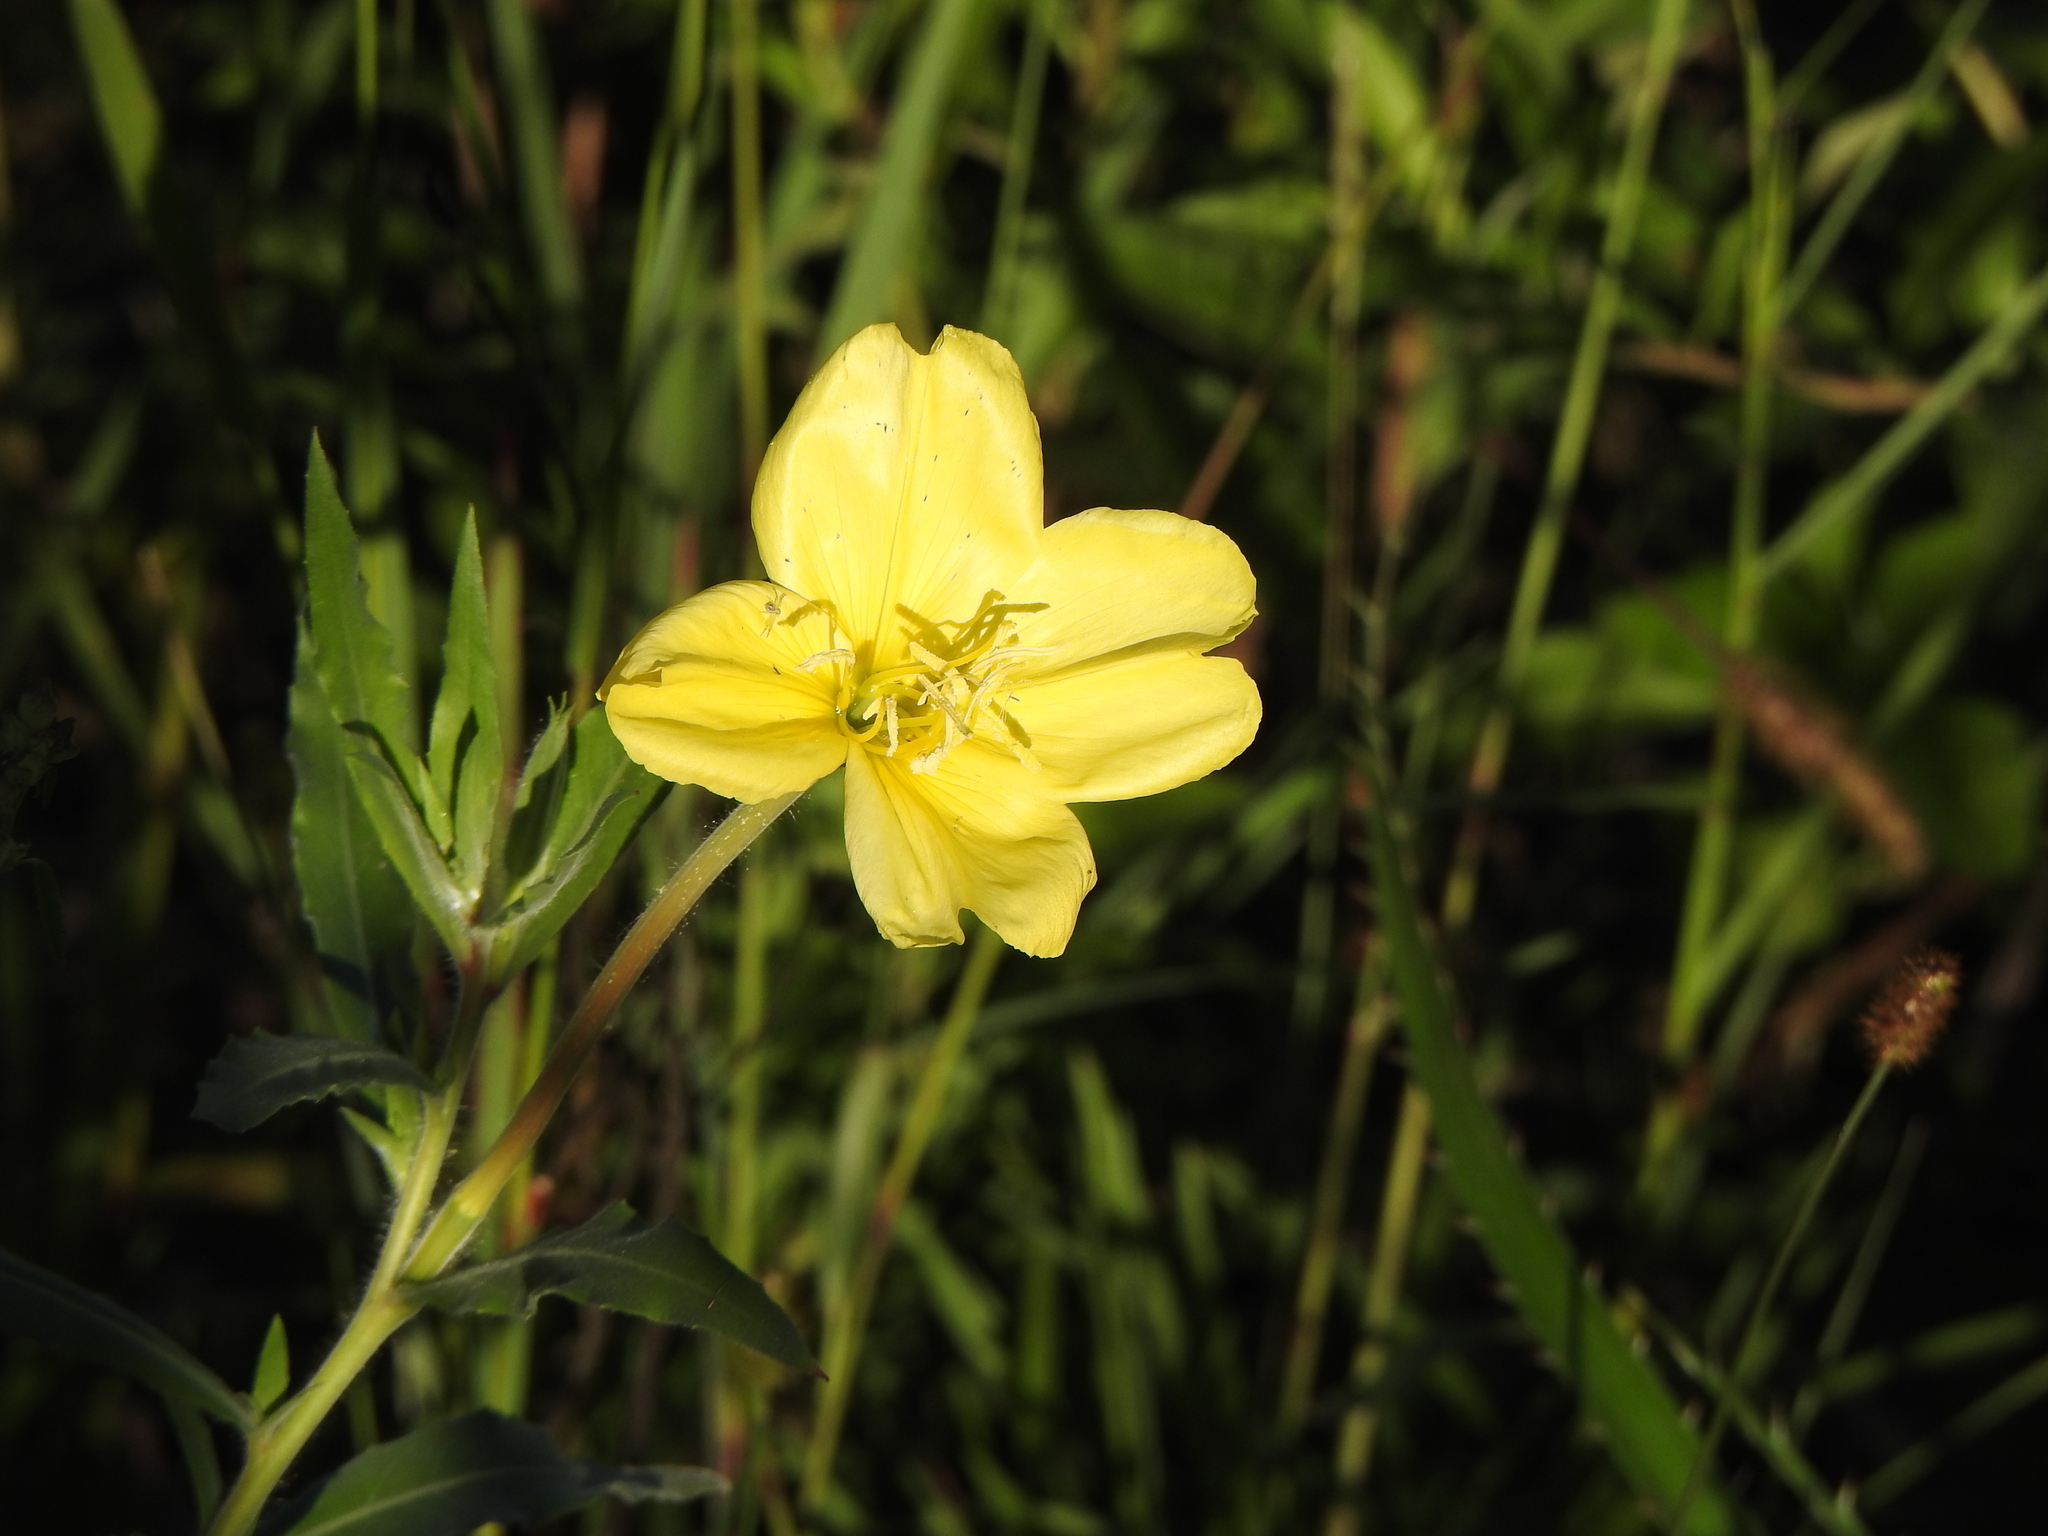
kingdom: Plantae
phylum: Tracheophyta
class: Magnoliopsida
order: Myrtales
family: Onagraceae
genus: Oenothera
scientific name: Oenothera affinis
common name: Longflower evening primrose
